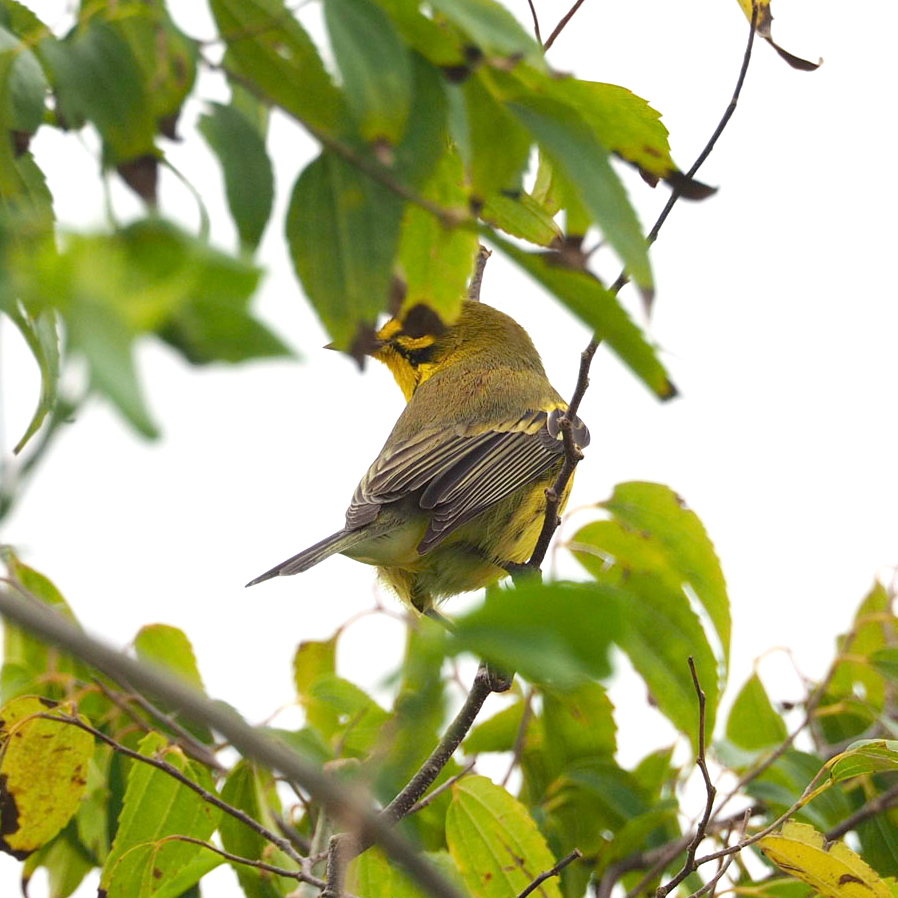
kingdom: Animalia
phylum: Chordata
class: Aves
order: Passeriformes
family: Parulidae
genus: Setophaga
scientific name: Setophaga discolor
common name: Prairie warbler
